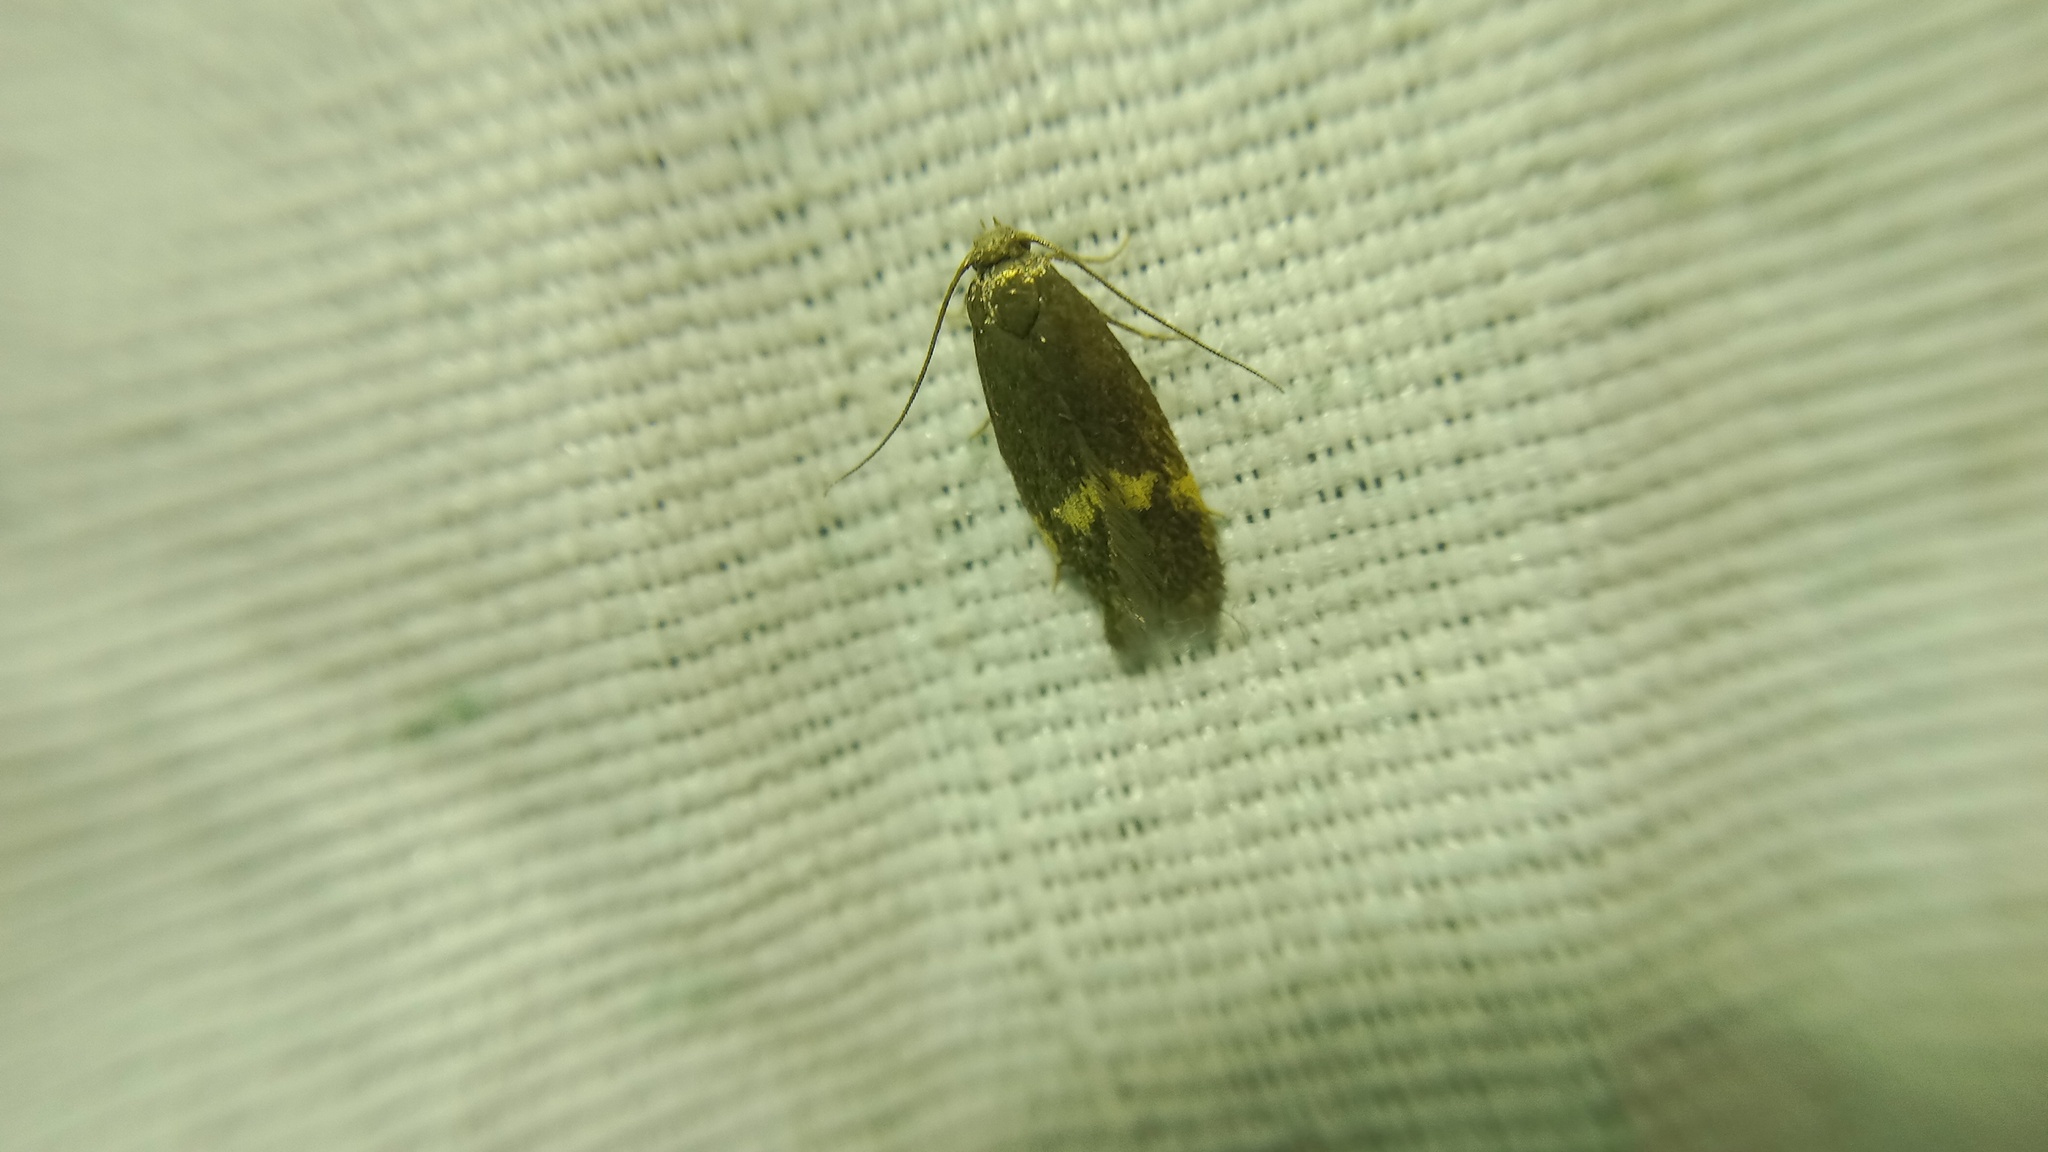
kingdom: Animalia
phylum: Arthropoda
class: Insecta
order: Lepidoptera
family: Oecophoridae
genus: Borkhausenia
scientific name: Borkhausenia minutella
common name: Thatch tubic
